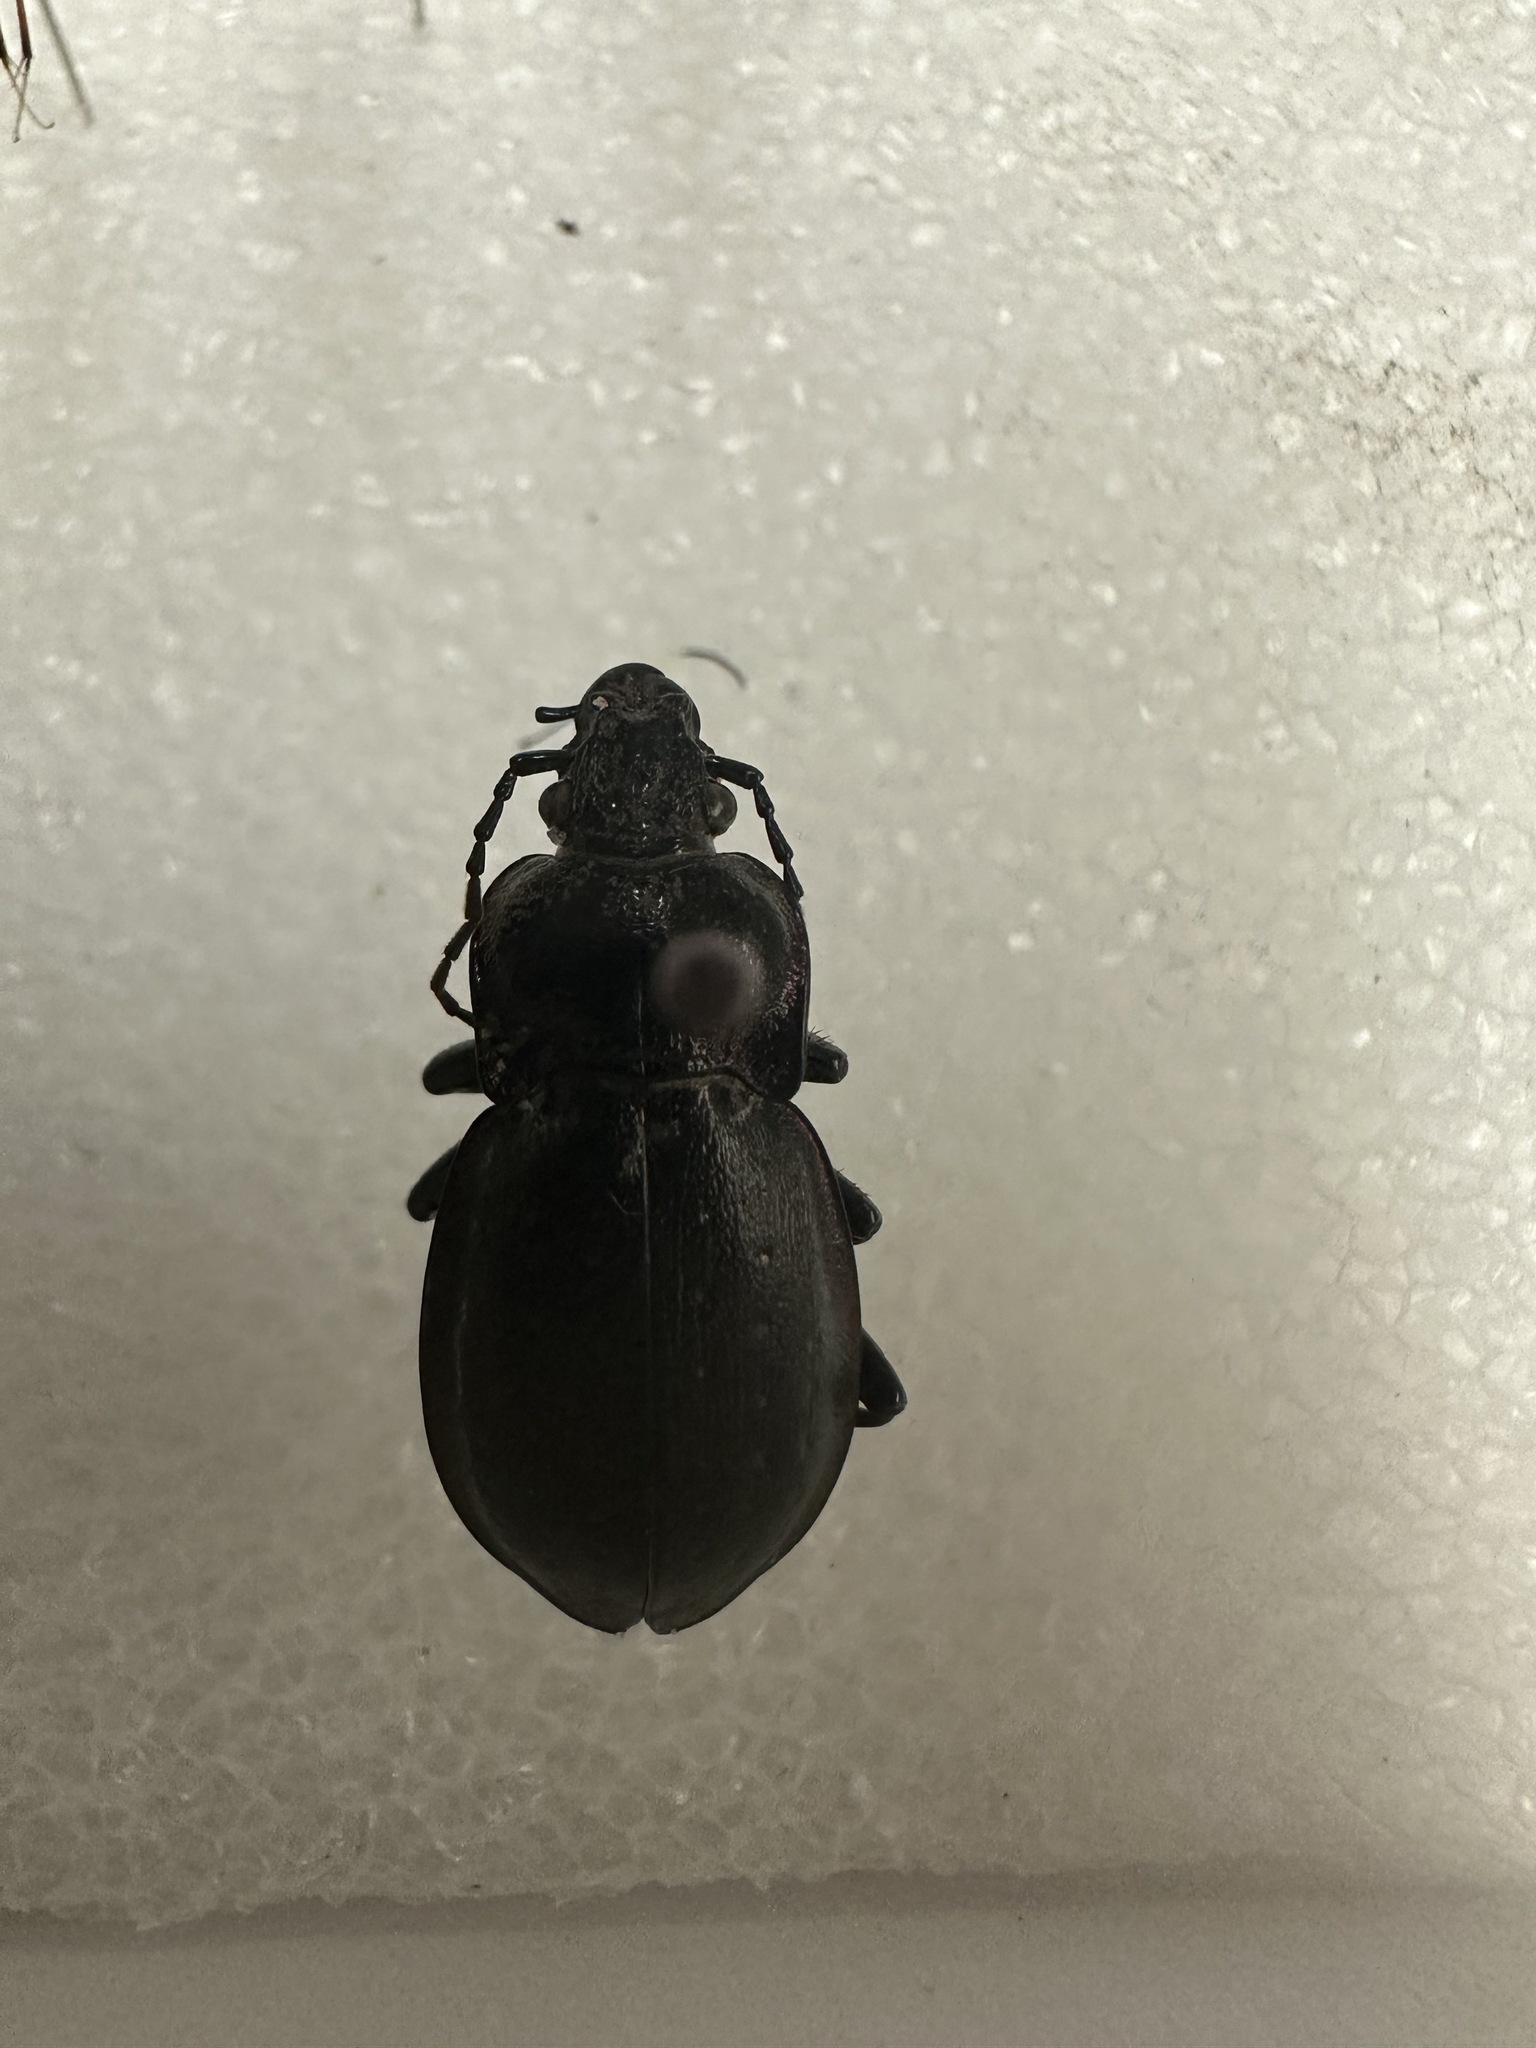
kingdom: Animalia
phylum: Arthropoda
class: Insecta
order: Coleoptera
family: Carabidae
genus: Carabus
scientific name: Carabus nemoralis
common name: European ground beetle
